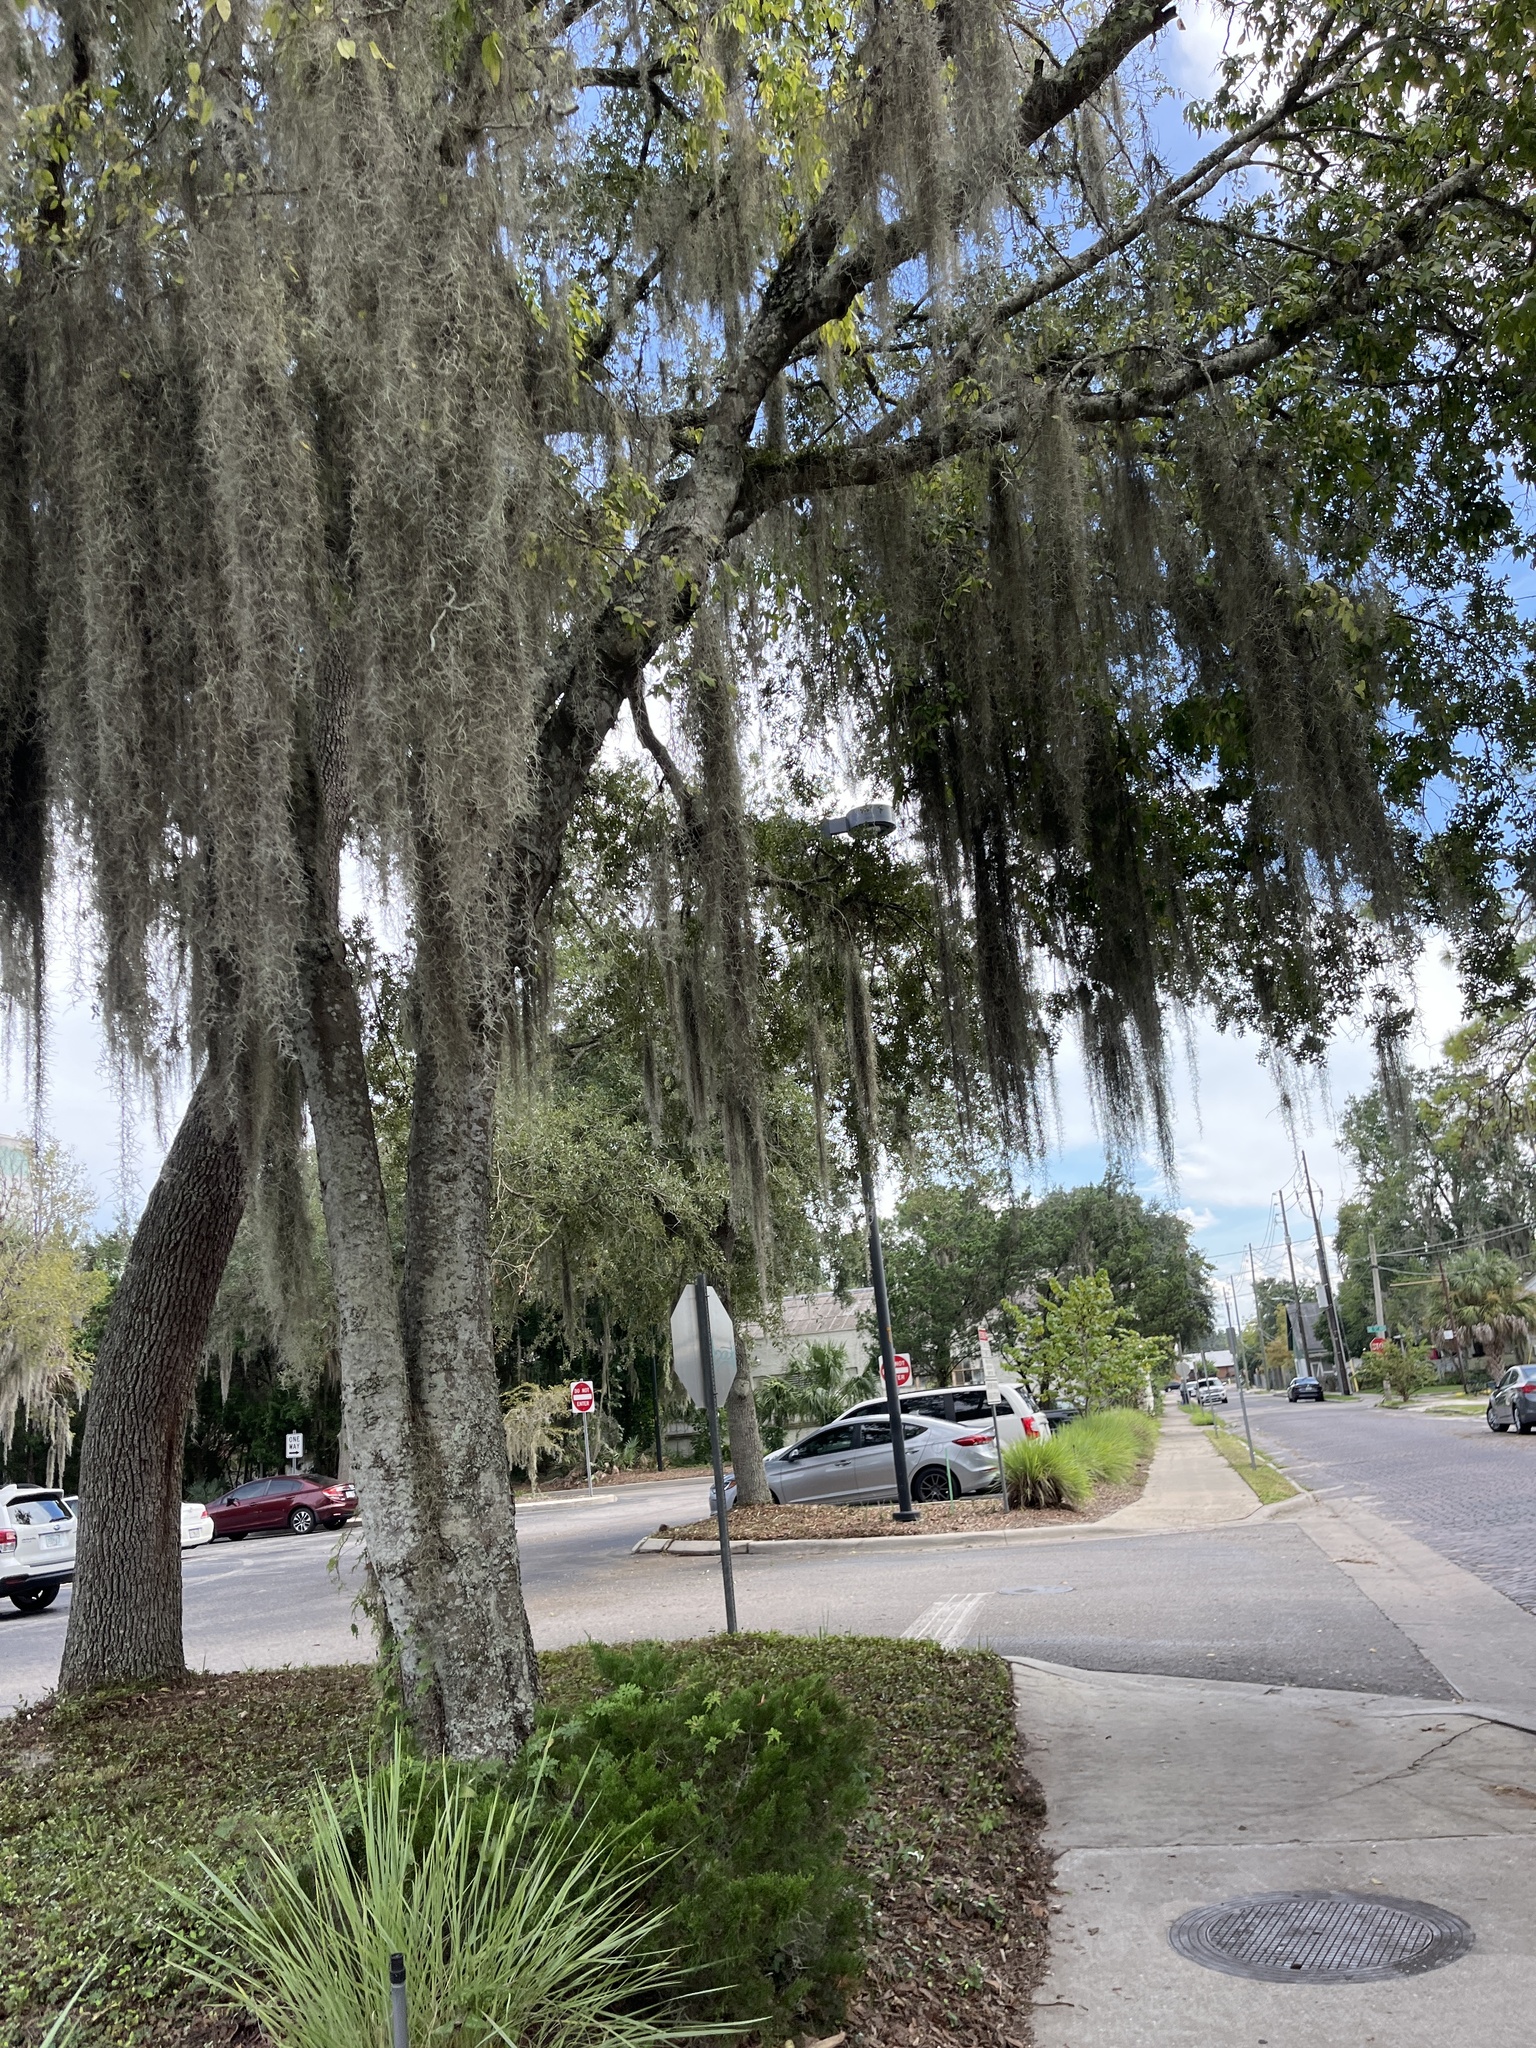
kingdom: Plantae
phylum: Tracheophyta
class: Liliopsida
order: Poales
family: Bromeliaceae
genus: Tillandsia
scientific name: Tillandsia usneoides
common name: Spanish moss
